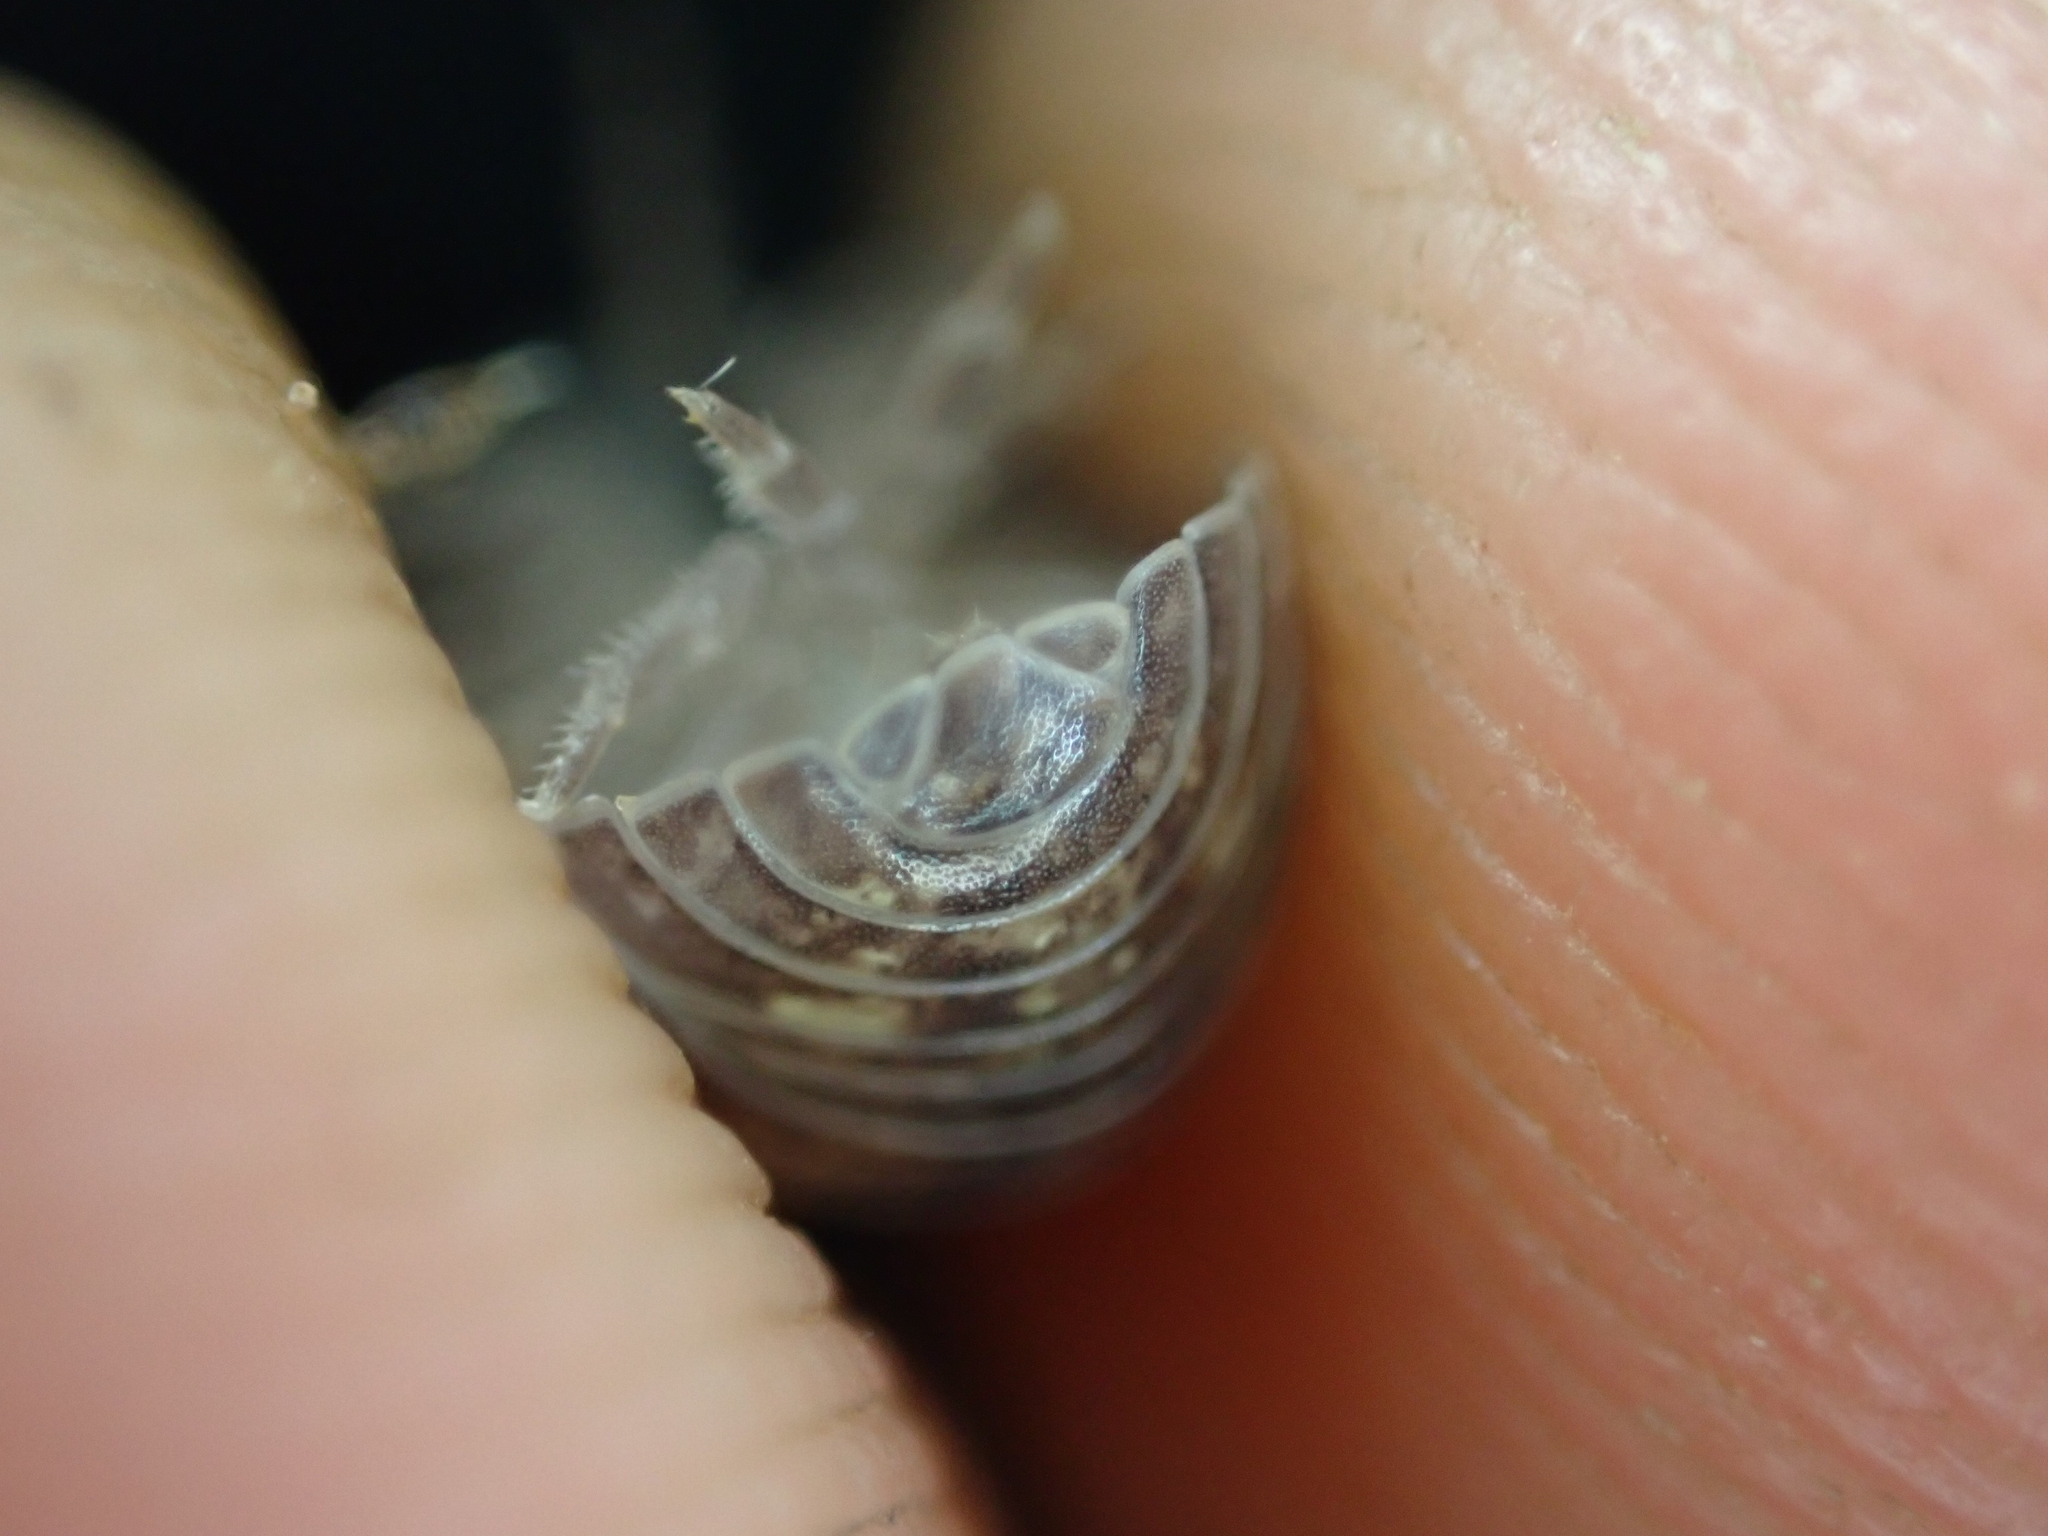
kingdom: Animalia
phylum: Arthropoda
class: Malacostraca
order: Isopoda
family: Armadillidiidae
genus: Armadillidium
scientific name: Armadillidium vulgare
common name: Common pill woodlouse
